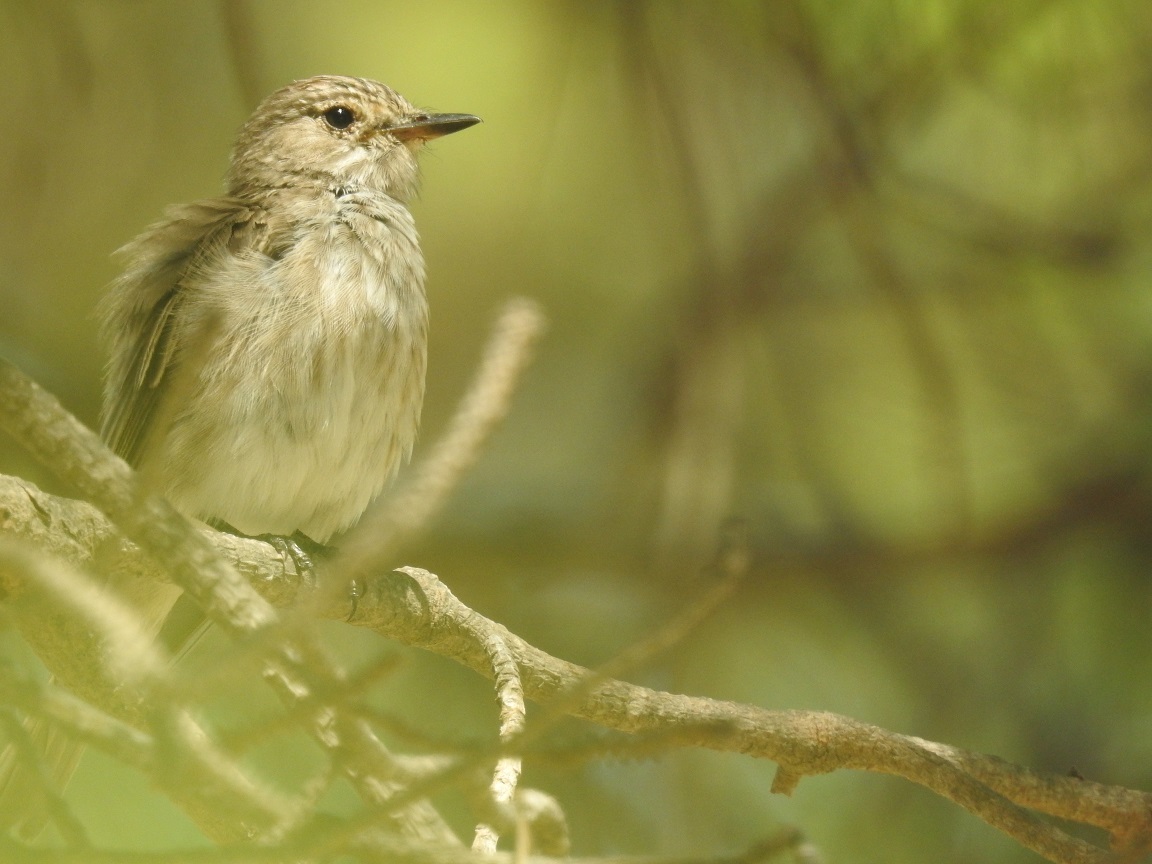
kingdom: Animalia
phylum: Chordata
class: Aves
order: Passeriformes
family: Muscicapidae
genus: Muscicapa
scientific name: Muscicapa striata
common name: Spotted flycatcher
